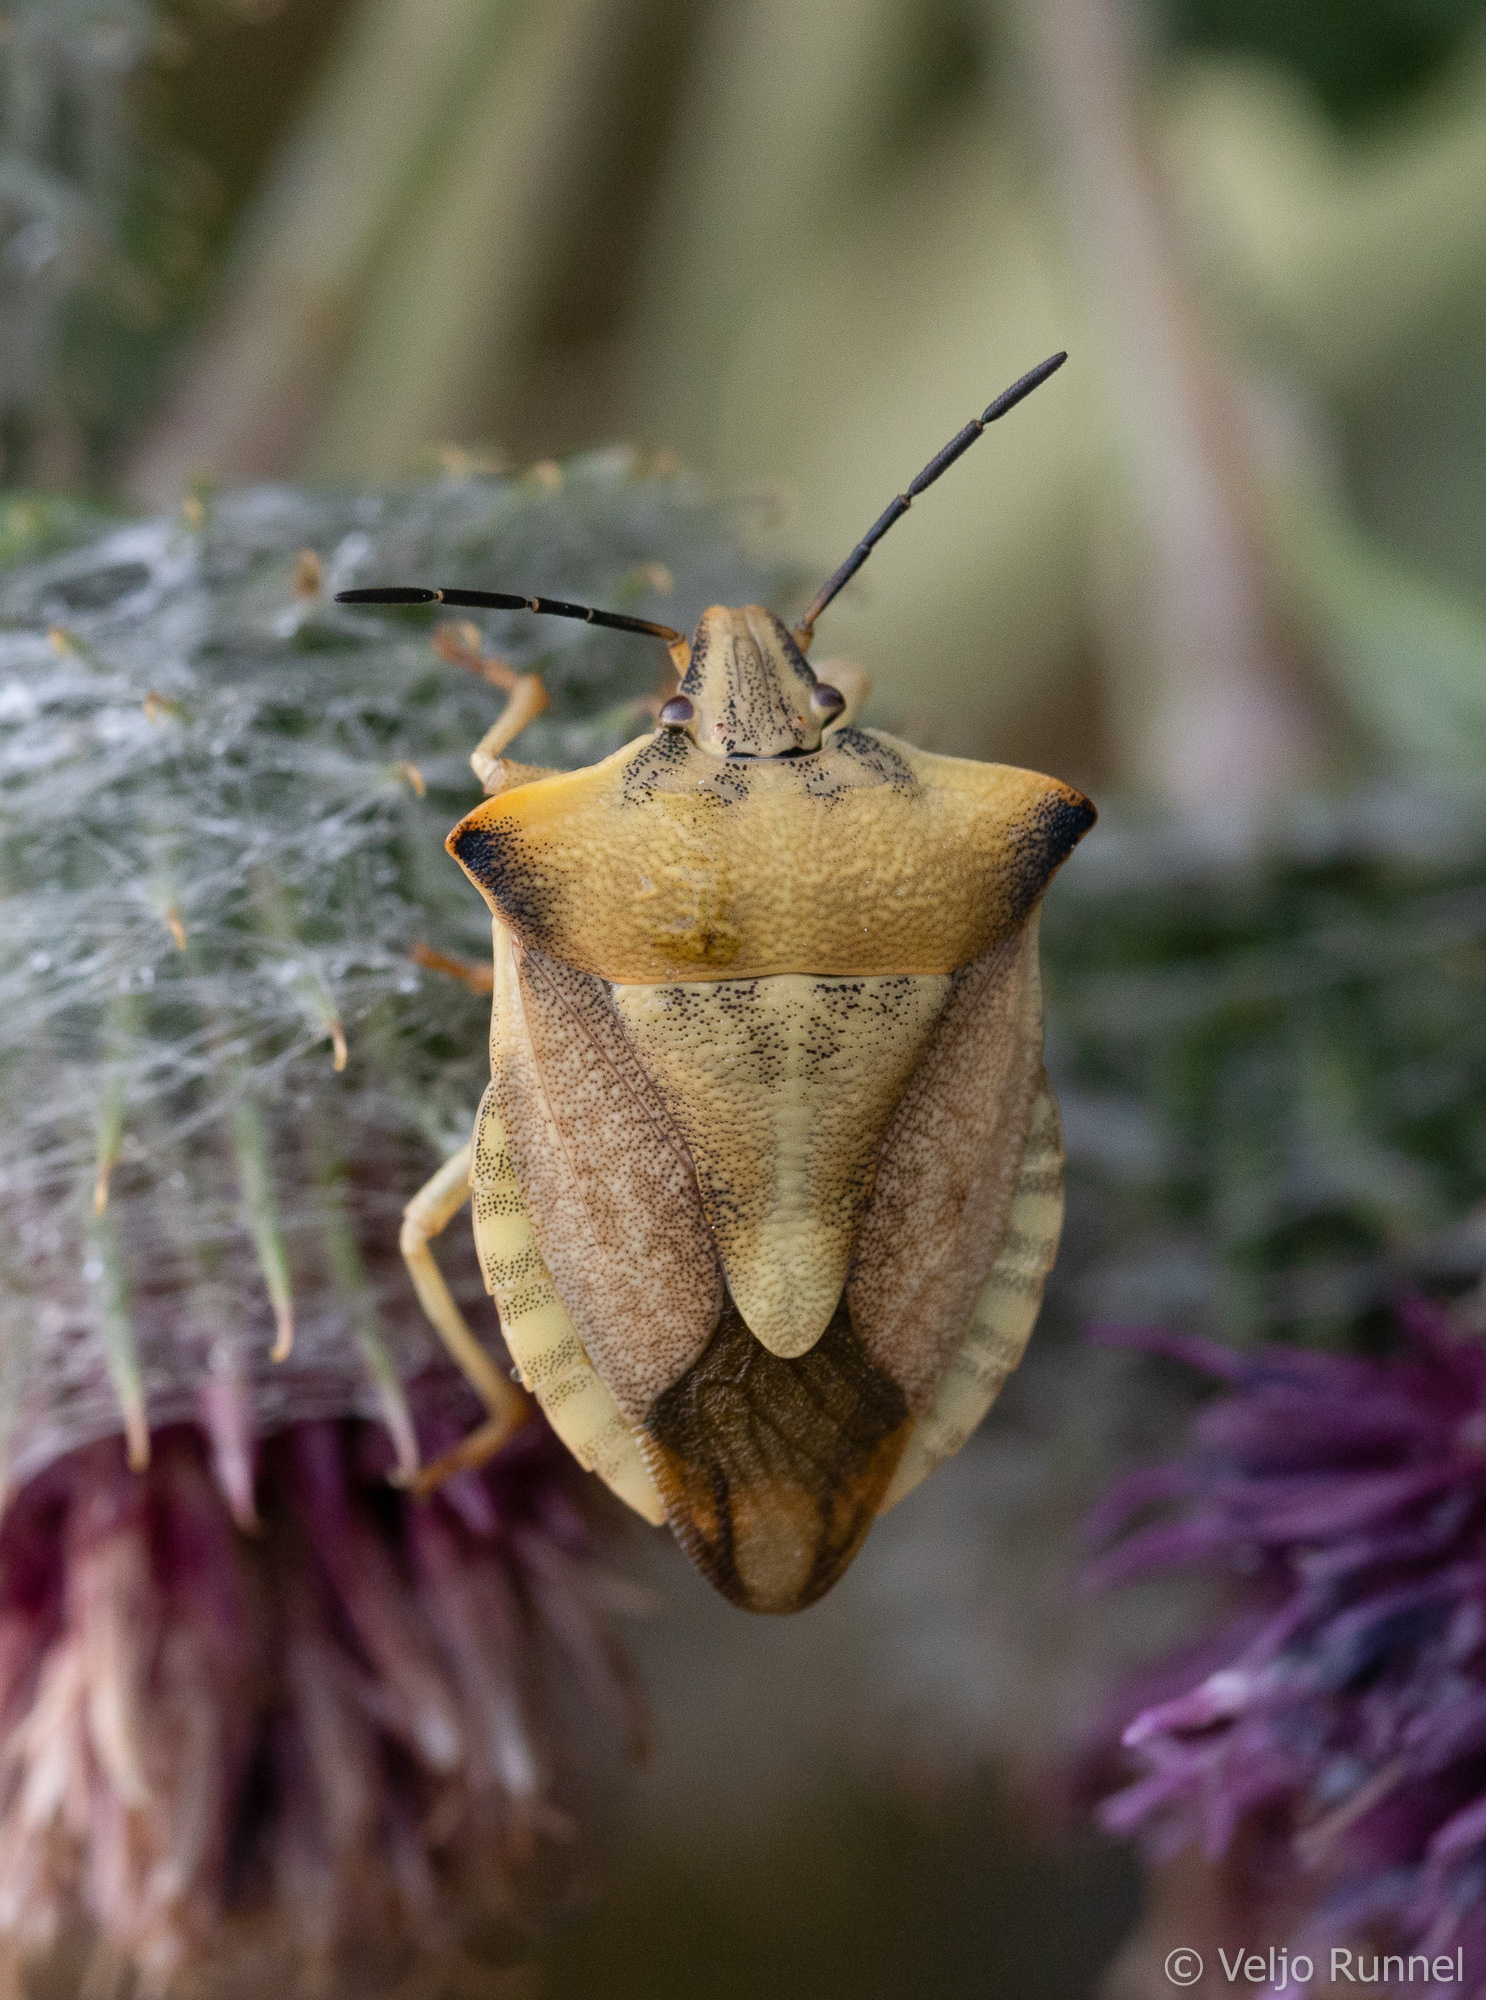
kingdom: Animalia
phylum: Arthropoda
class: Insecta
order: Hemiptera
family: Pentatomidae
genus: Carpocoris
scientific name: Carpocoris fuscispinus
